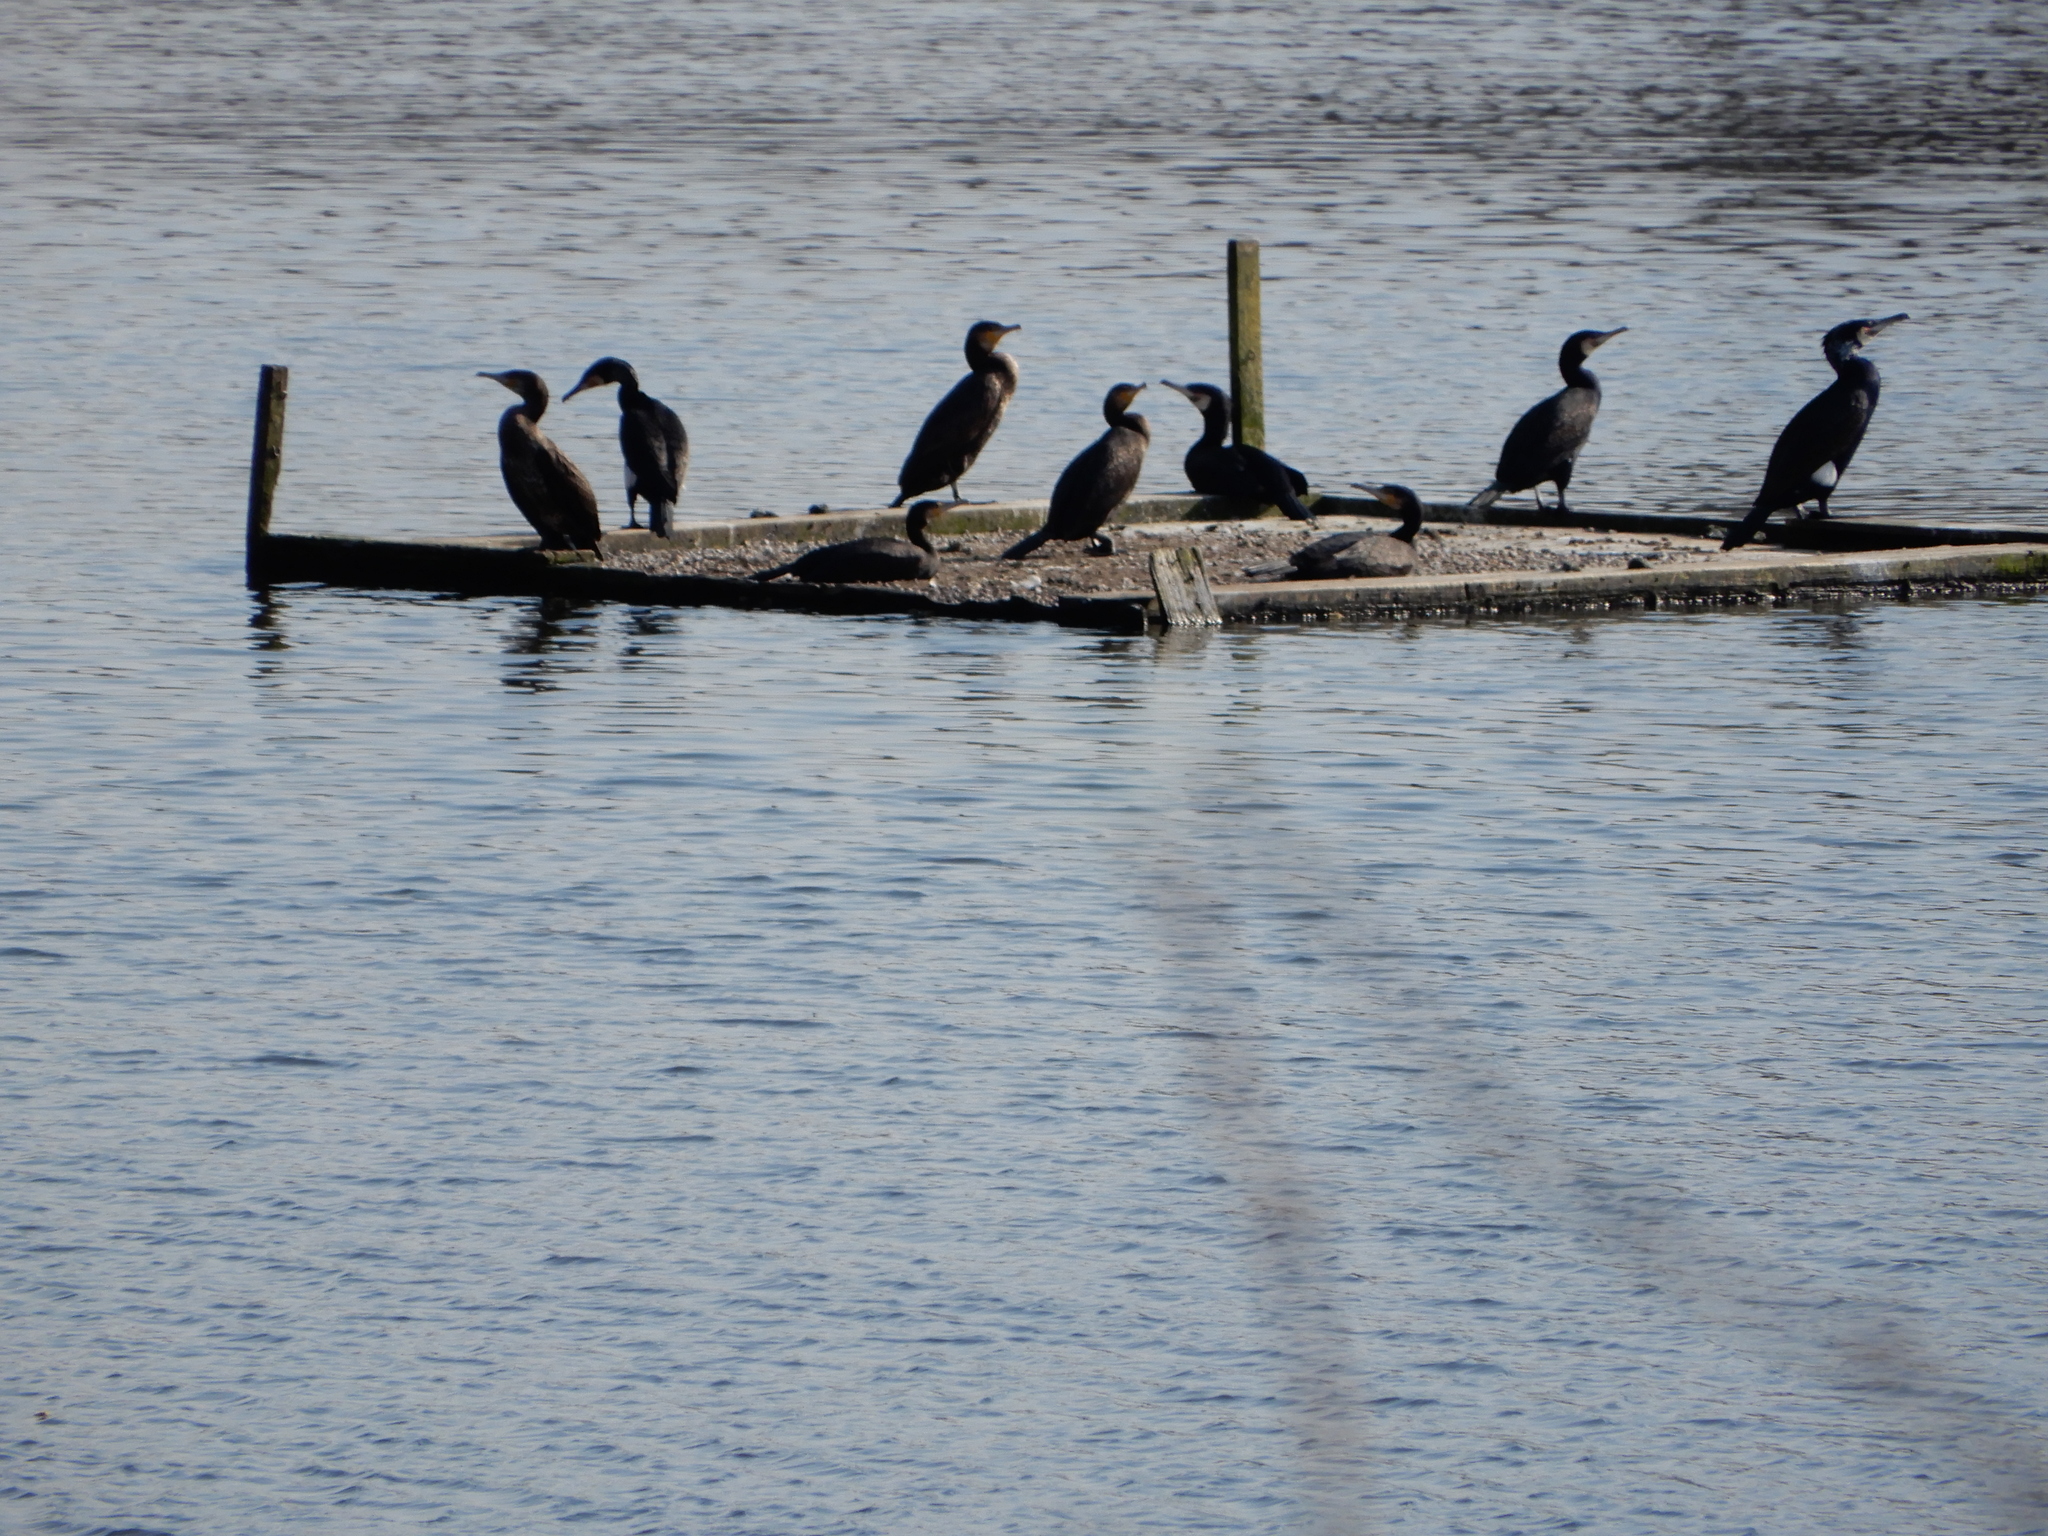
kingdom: Animalia
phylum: Chordata
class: Aves
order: Suliformes
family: Phalacrocoracidae
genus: Phalacrocorax
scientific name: Phalacrocorax carbo
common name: Great cormorant
